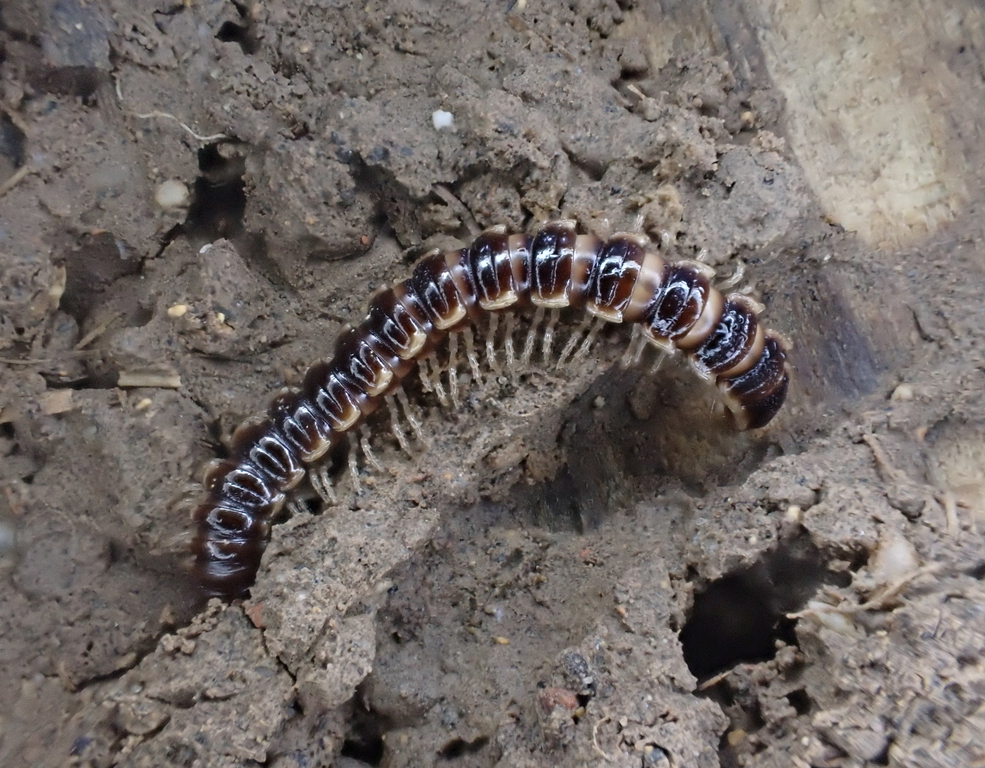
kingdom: Animalia
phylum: Arthropoda
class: Diplopoda
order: Polydesmida
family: Paradoxosomatidae
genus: Oxidus
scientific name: Oxidus gracilis
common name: Greenhouse millipede
